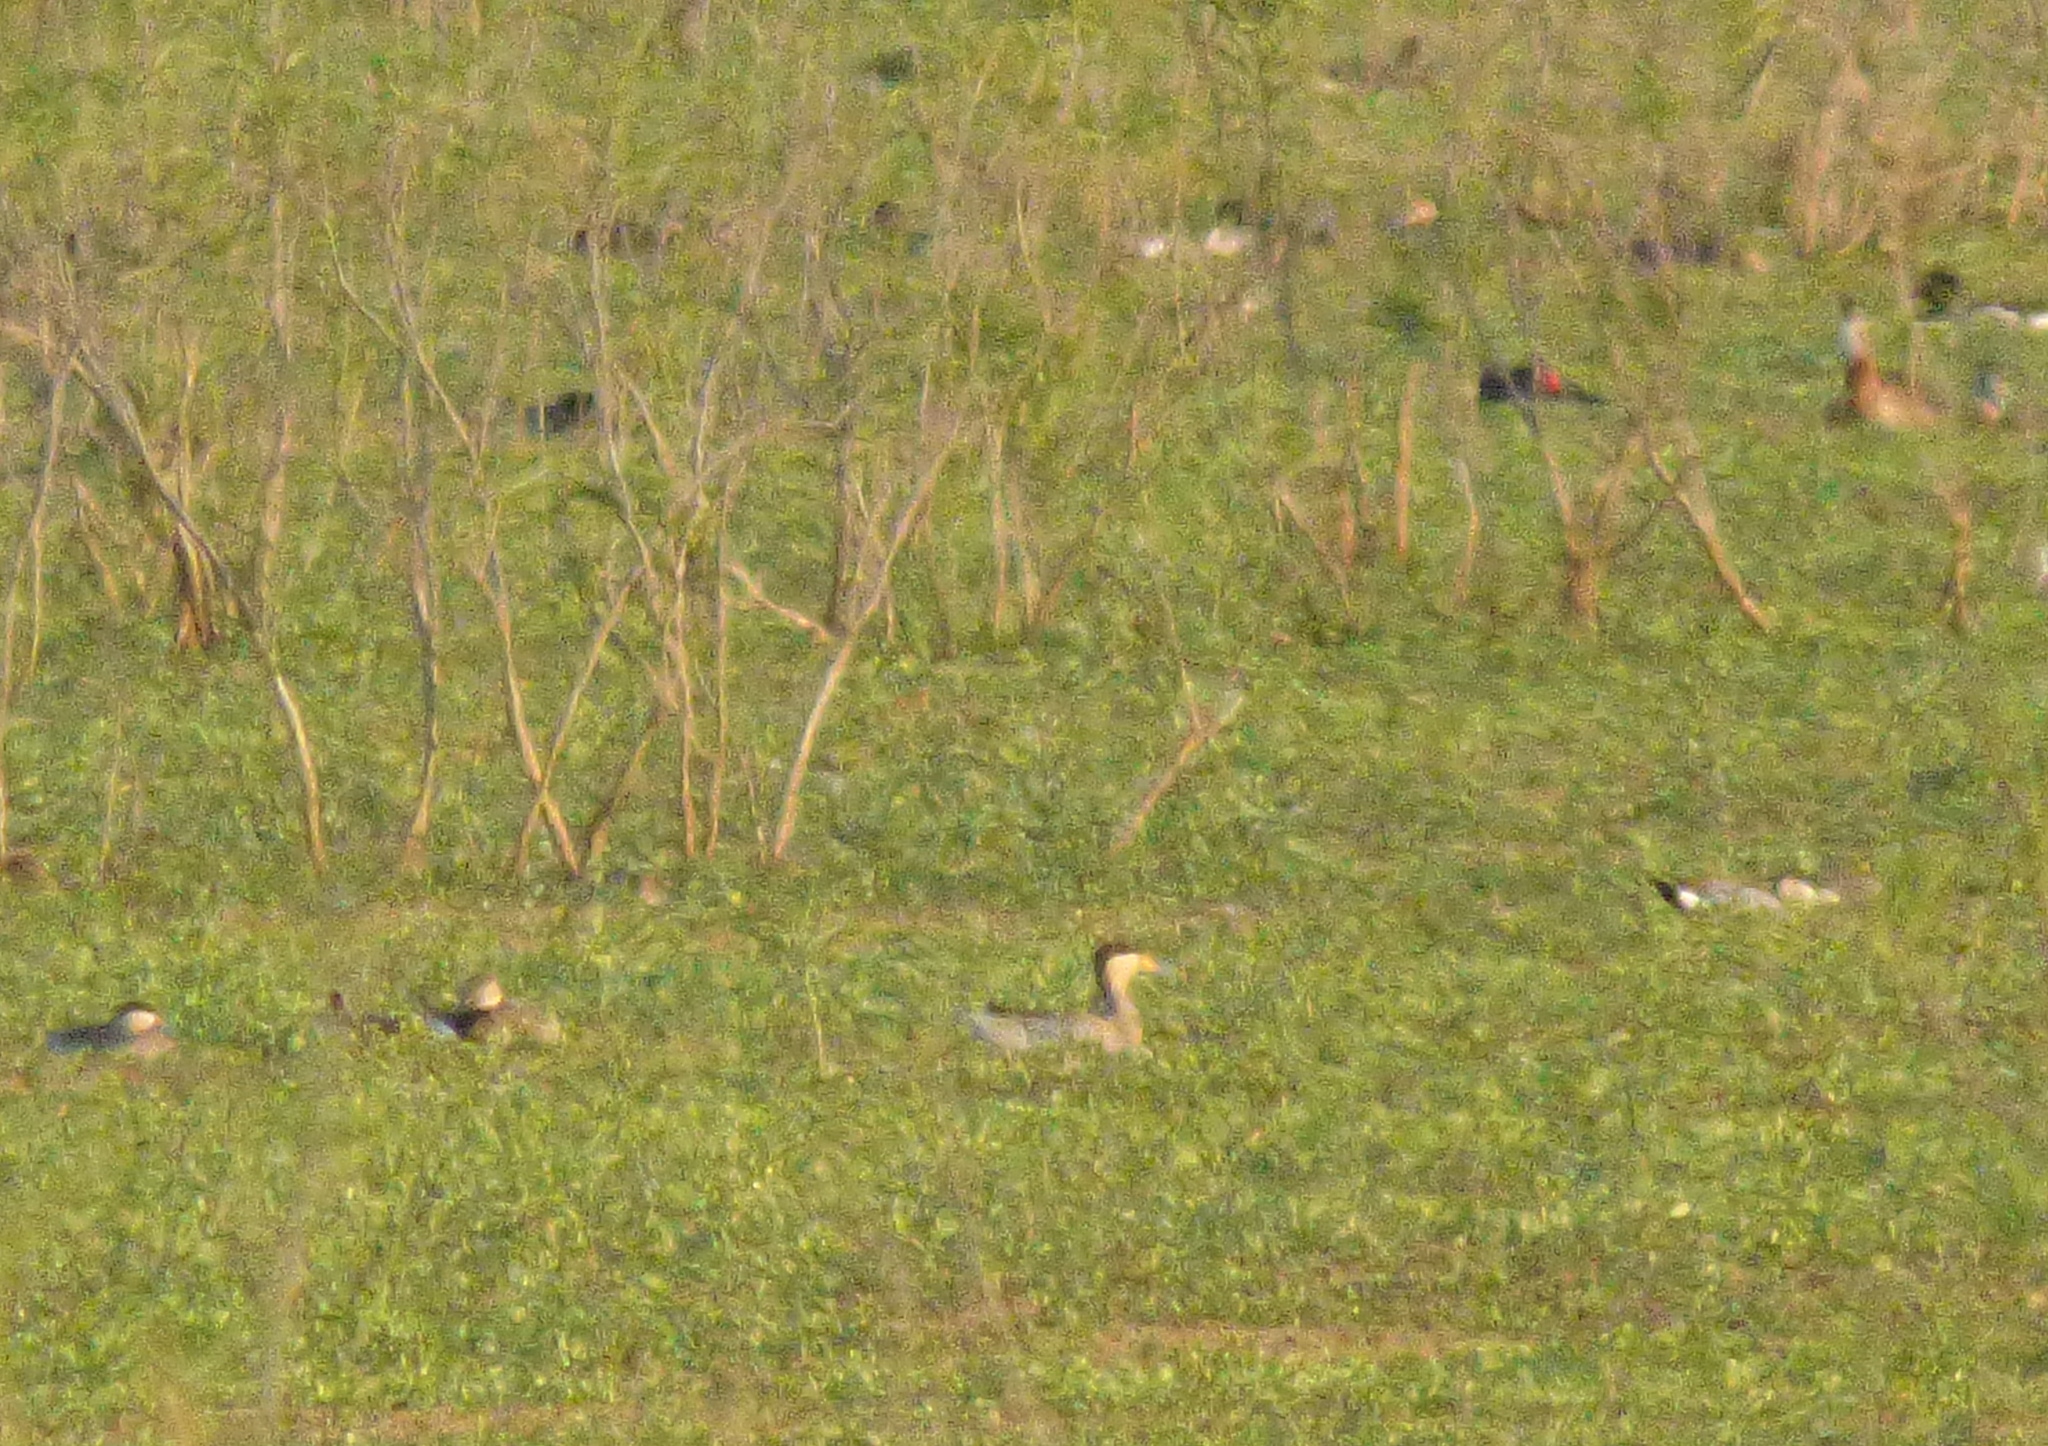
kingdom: Animalia
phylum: Chordata
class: Aves
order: Anseriformes
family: Anatidae
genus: Spatula
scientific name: Spatula versicolor
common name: Silver teal
